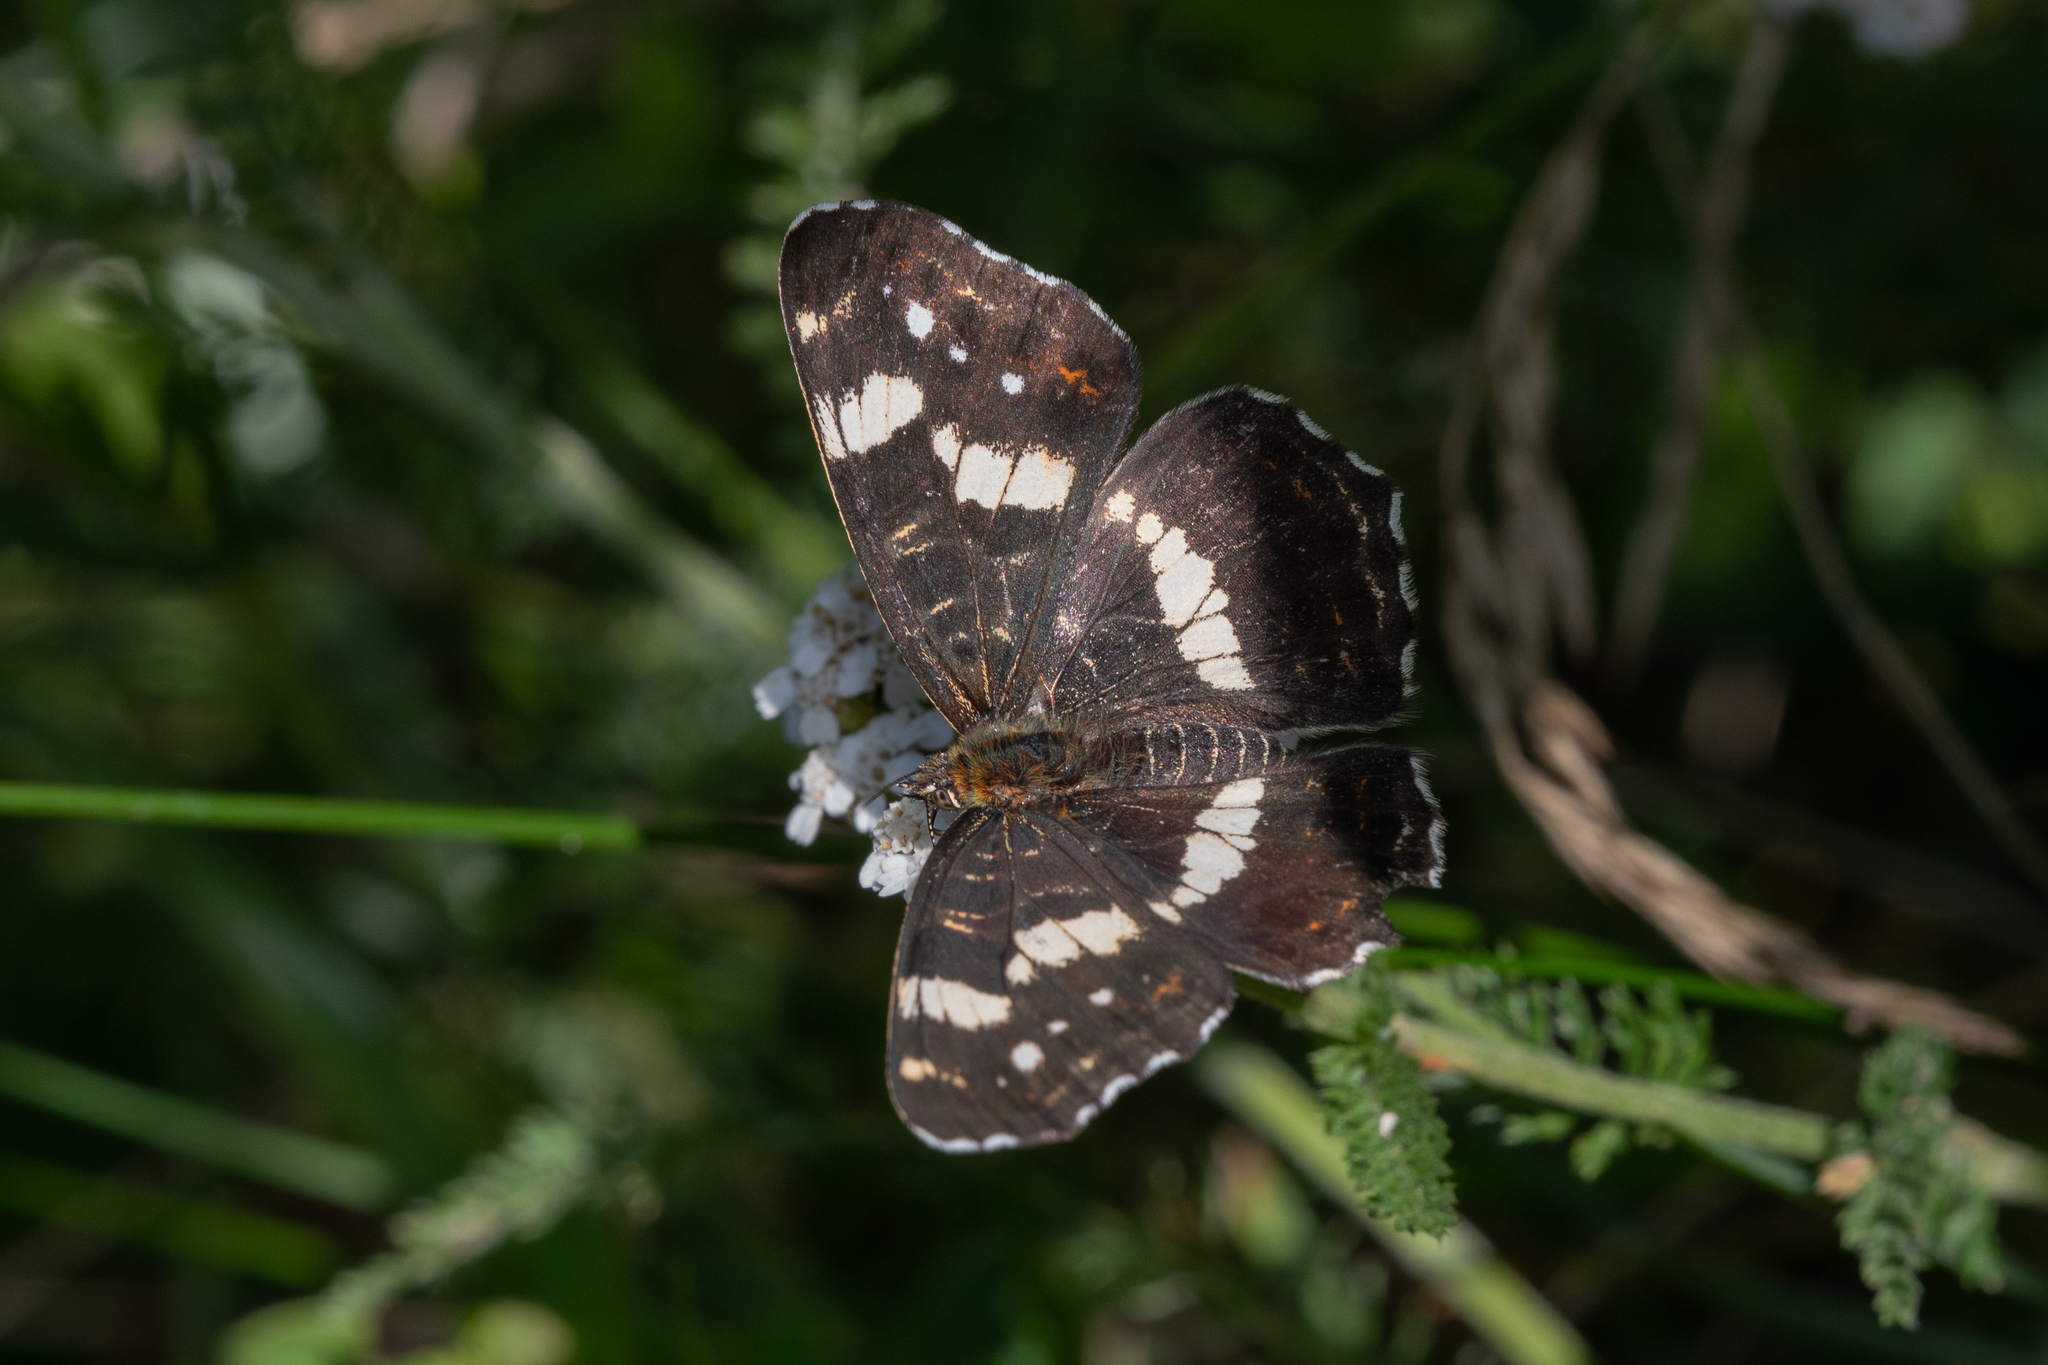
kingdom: Animalia
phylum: Arthropoda
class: Insecta
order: Lepidoptera
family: Nymphalidae
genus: Araschnia
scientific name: Araschnia levana
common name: Map butterfly
